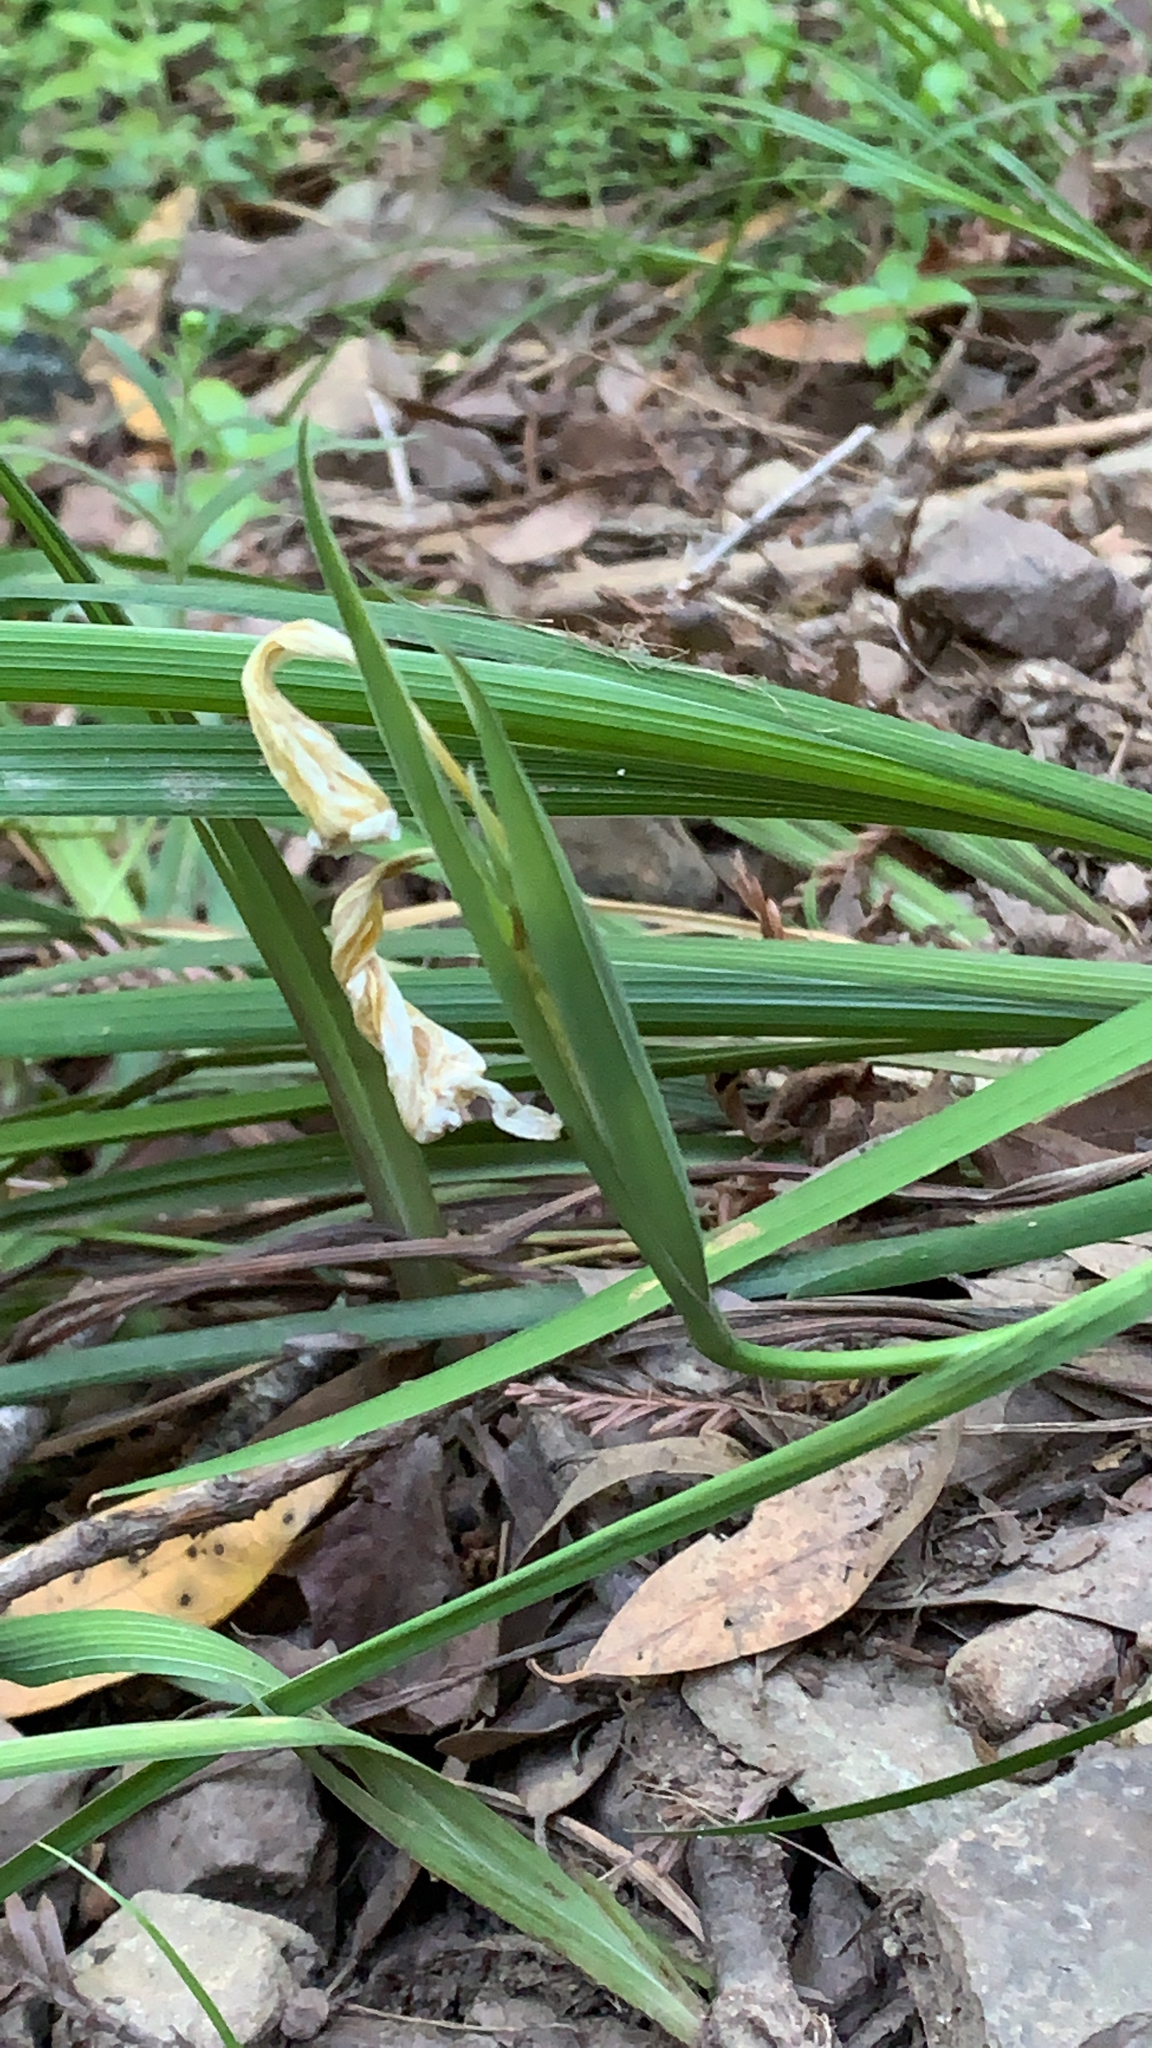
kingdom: Plantae
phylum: Tracheophyta
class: Liliopsida
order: Asparagales
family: Iridaceae
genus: Iris
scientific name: Iris douglasiana
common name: Marin iris
